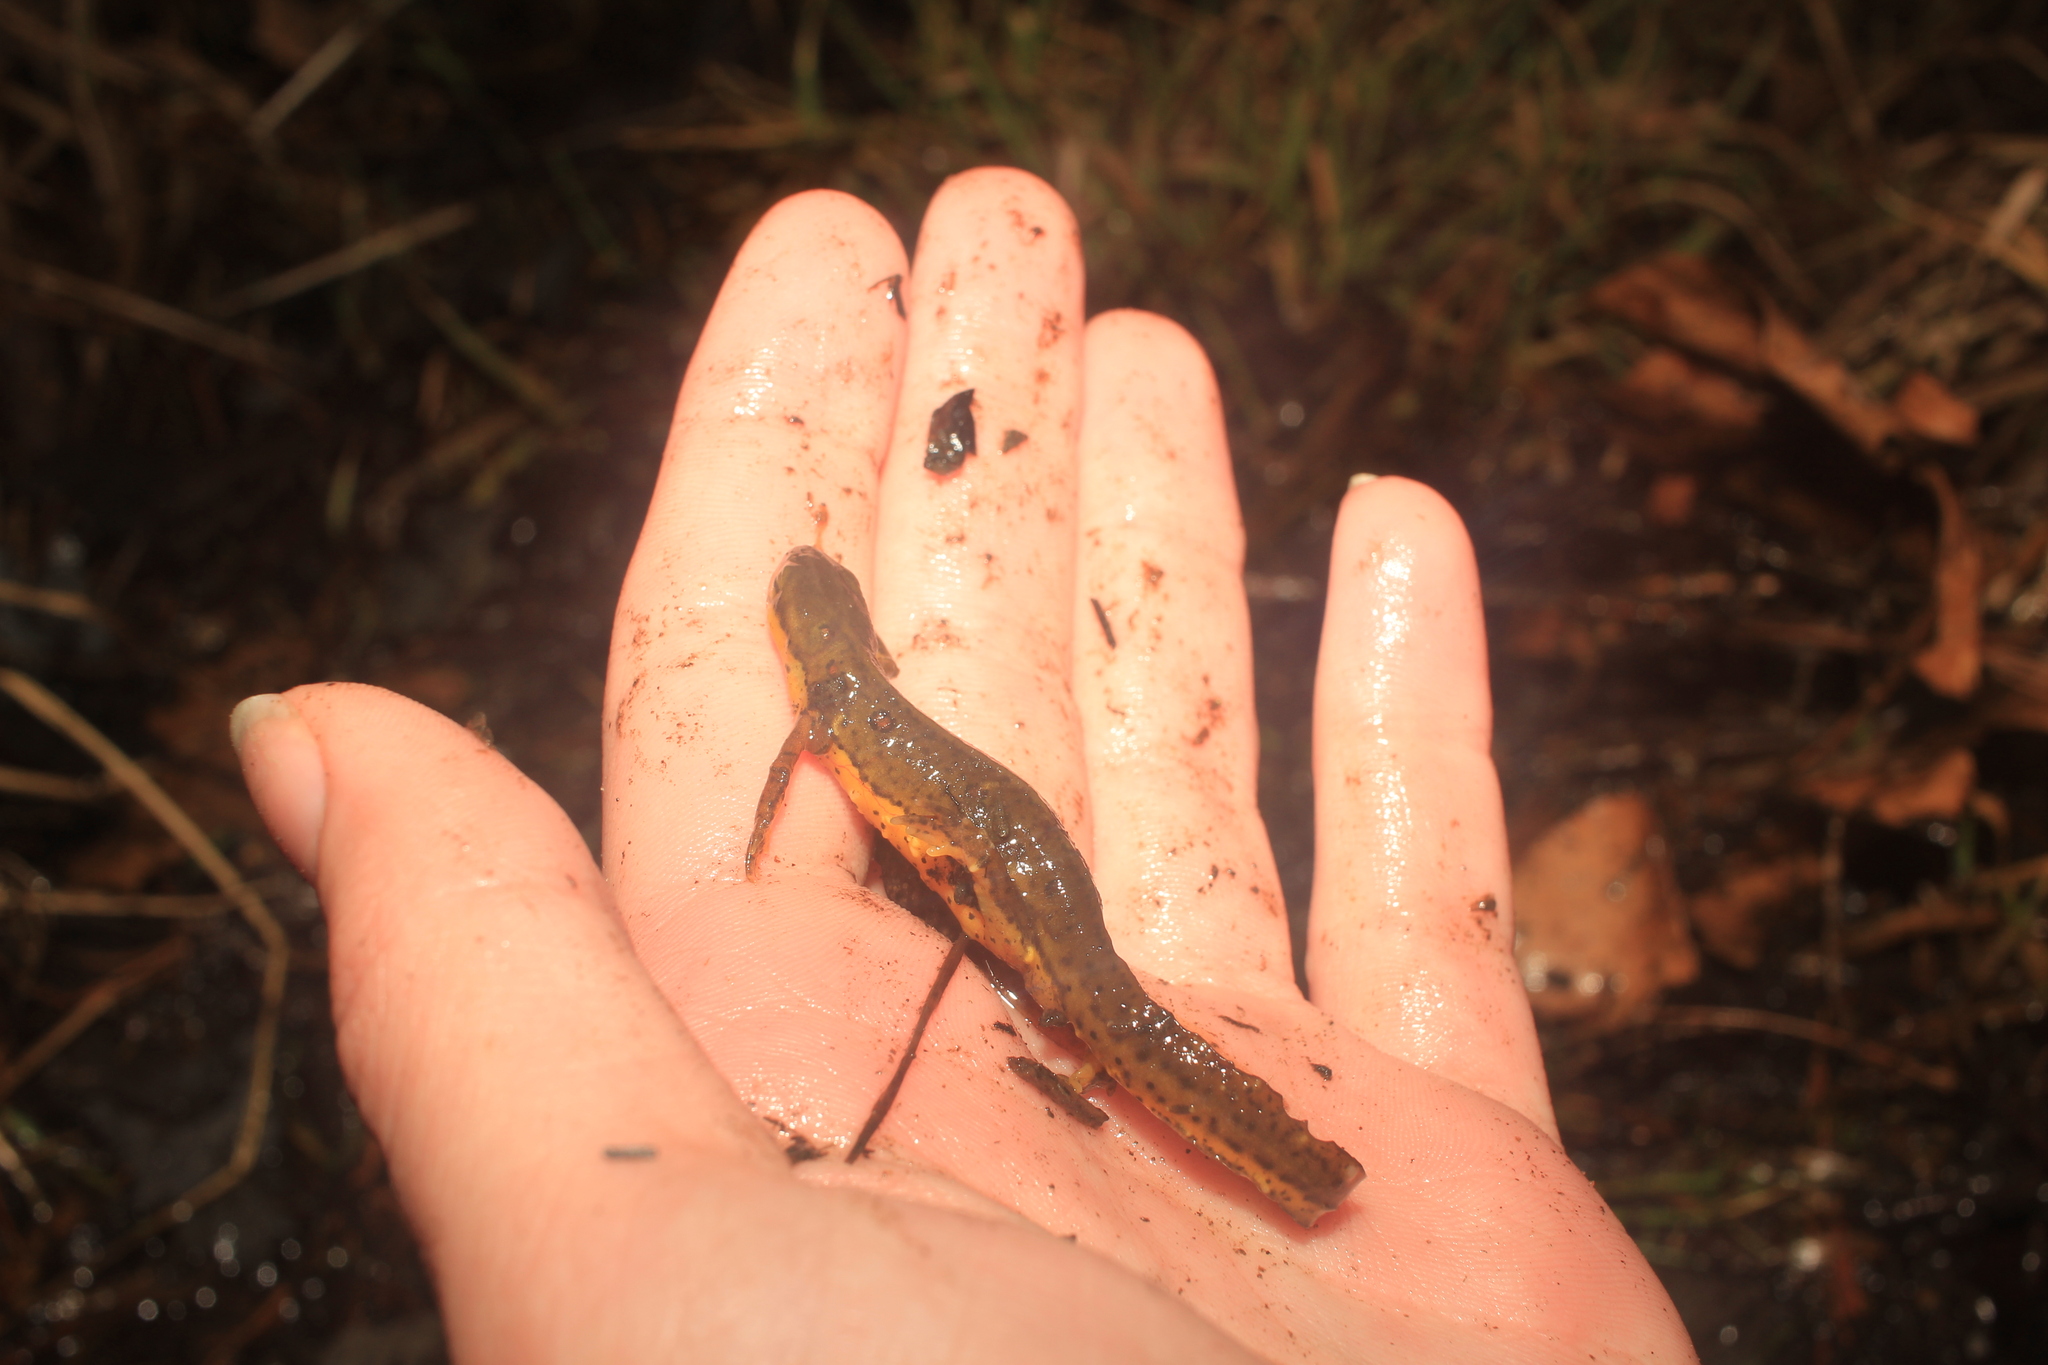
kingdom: Animalia
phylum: Chordata
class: Amphibia
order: Caudata
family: Salamandridae
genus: Notophthalmus
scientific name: Notophthalmus viridescens
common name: Eastern newt
